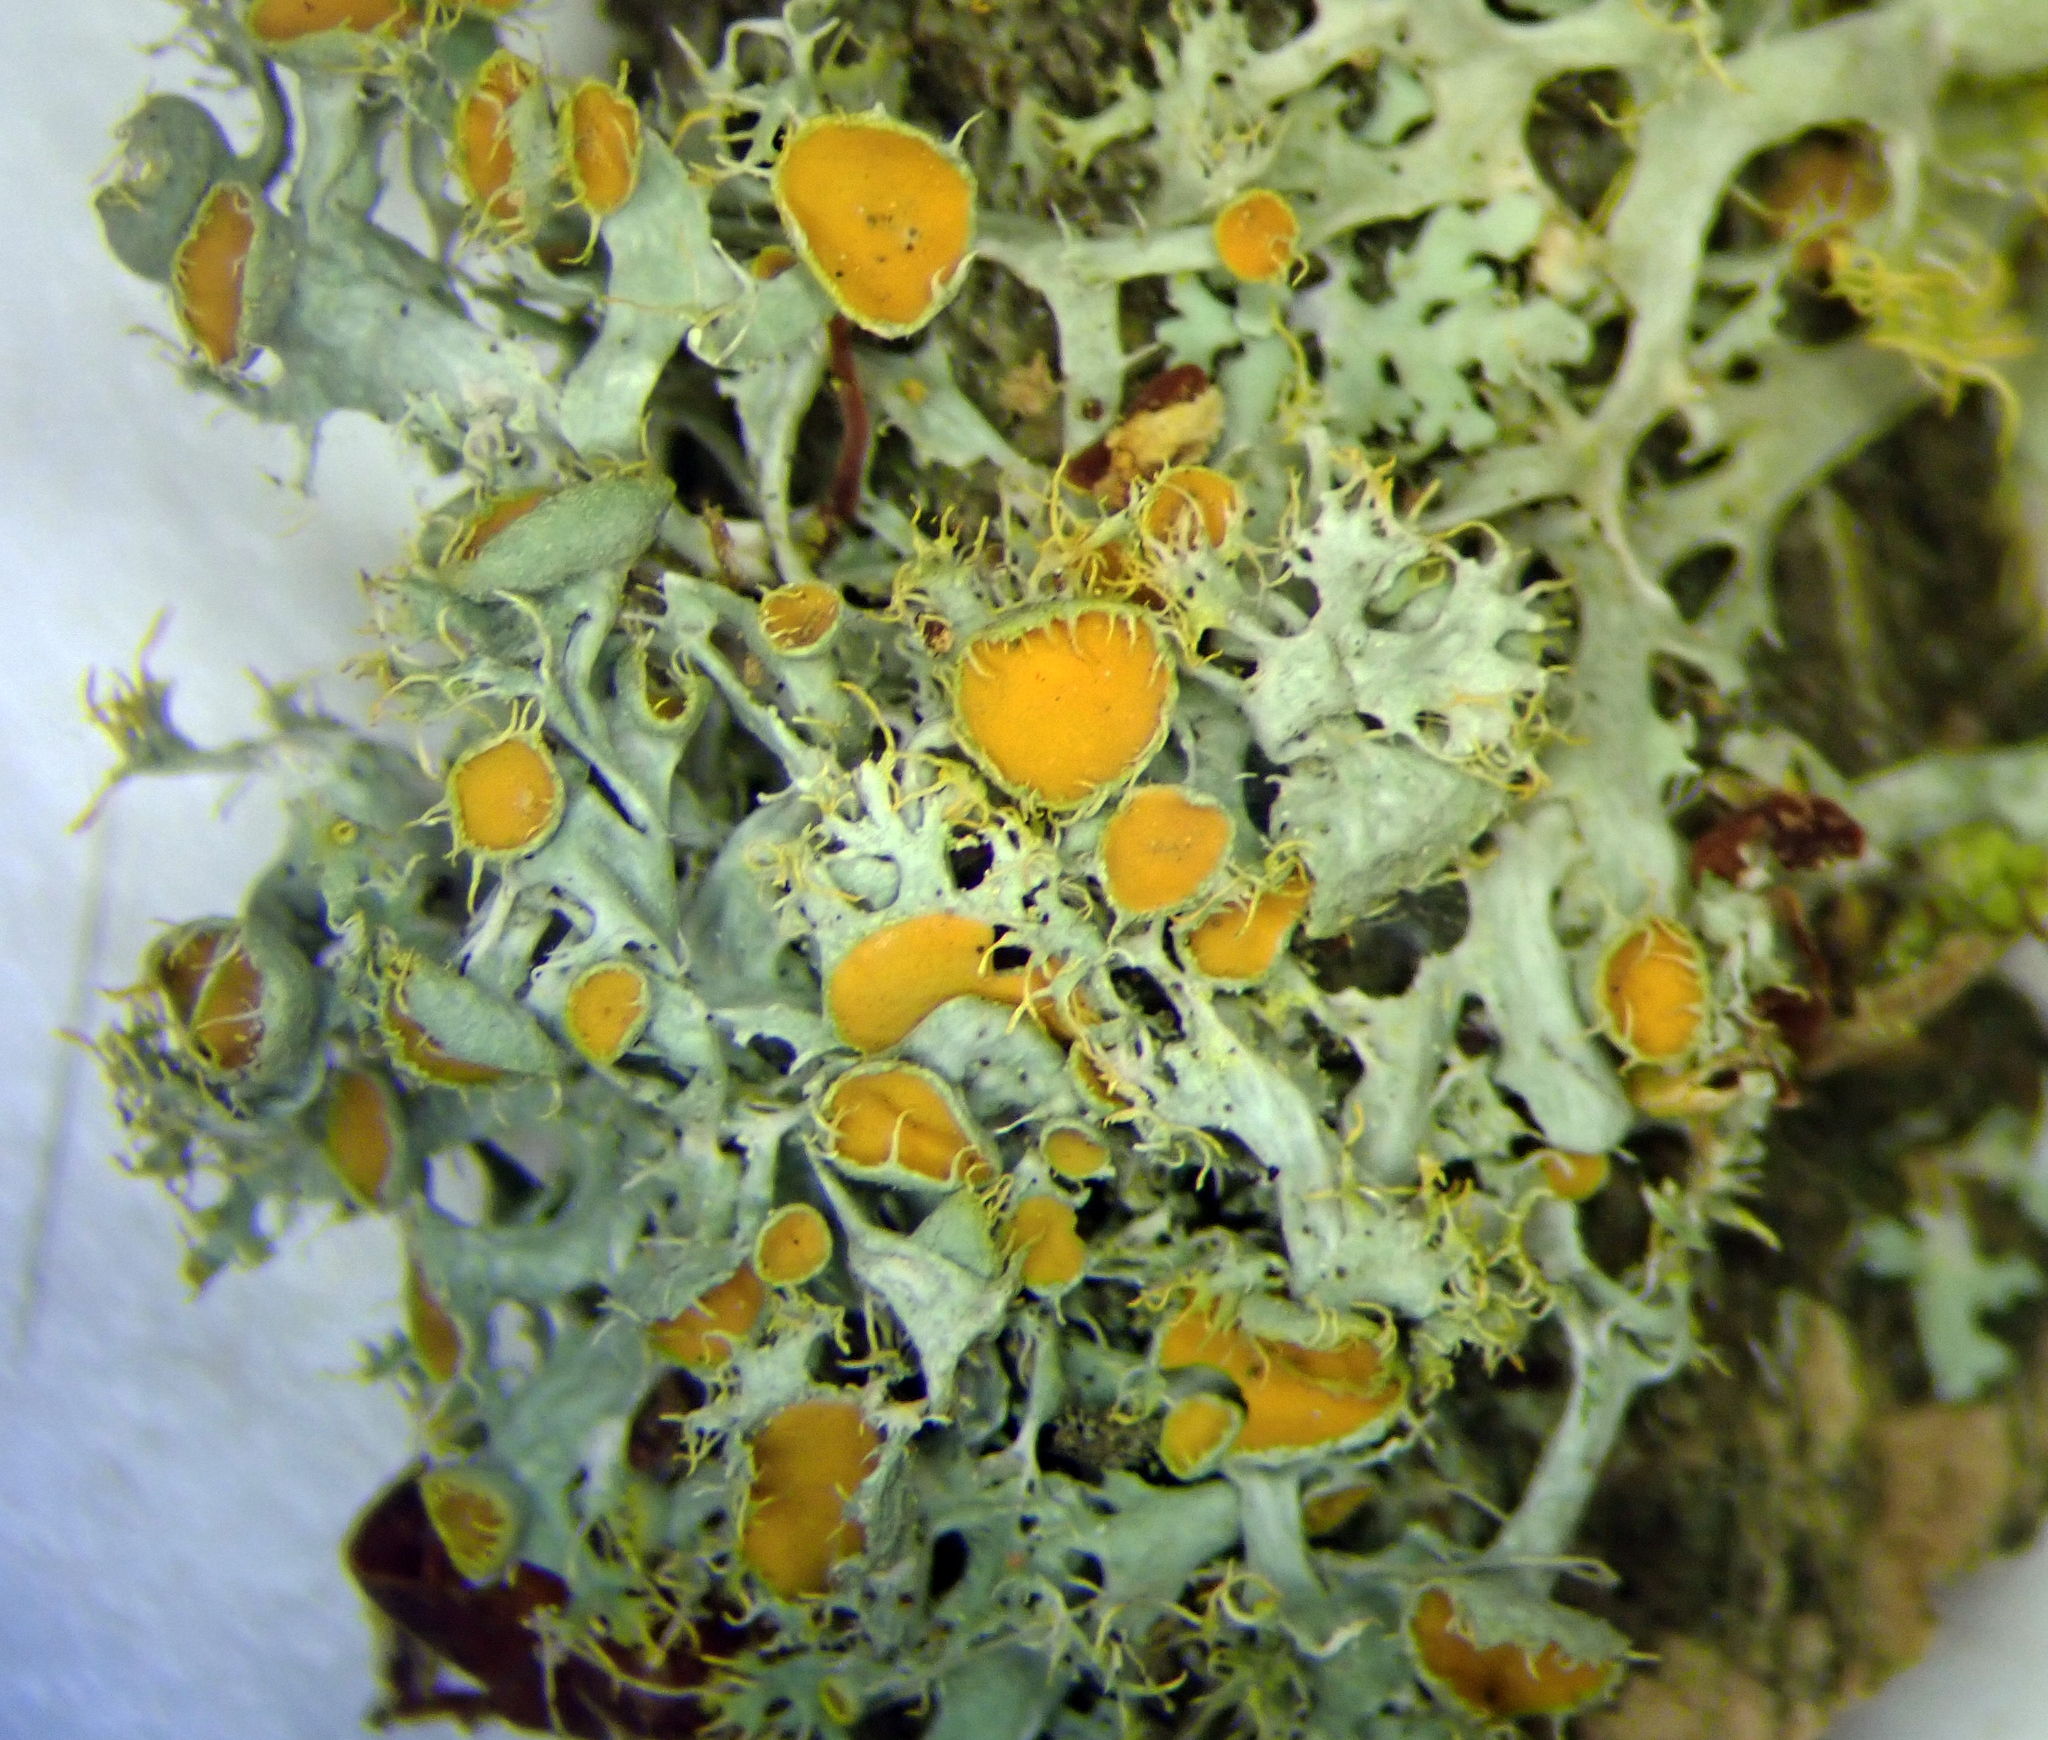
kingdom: Fungi
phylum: Ascomycota
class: Lecanoromycetes
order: Teloschistales
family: Teloschistaceae
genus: Niorma
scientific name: Niorma chrysophthalma
